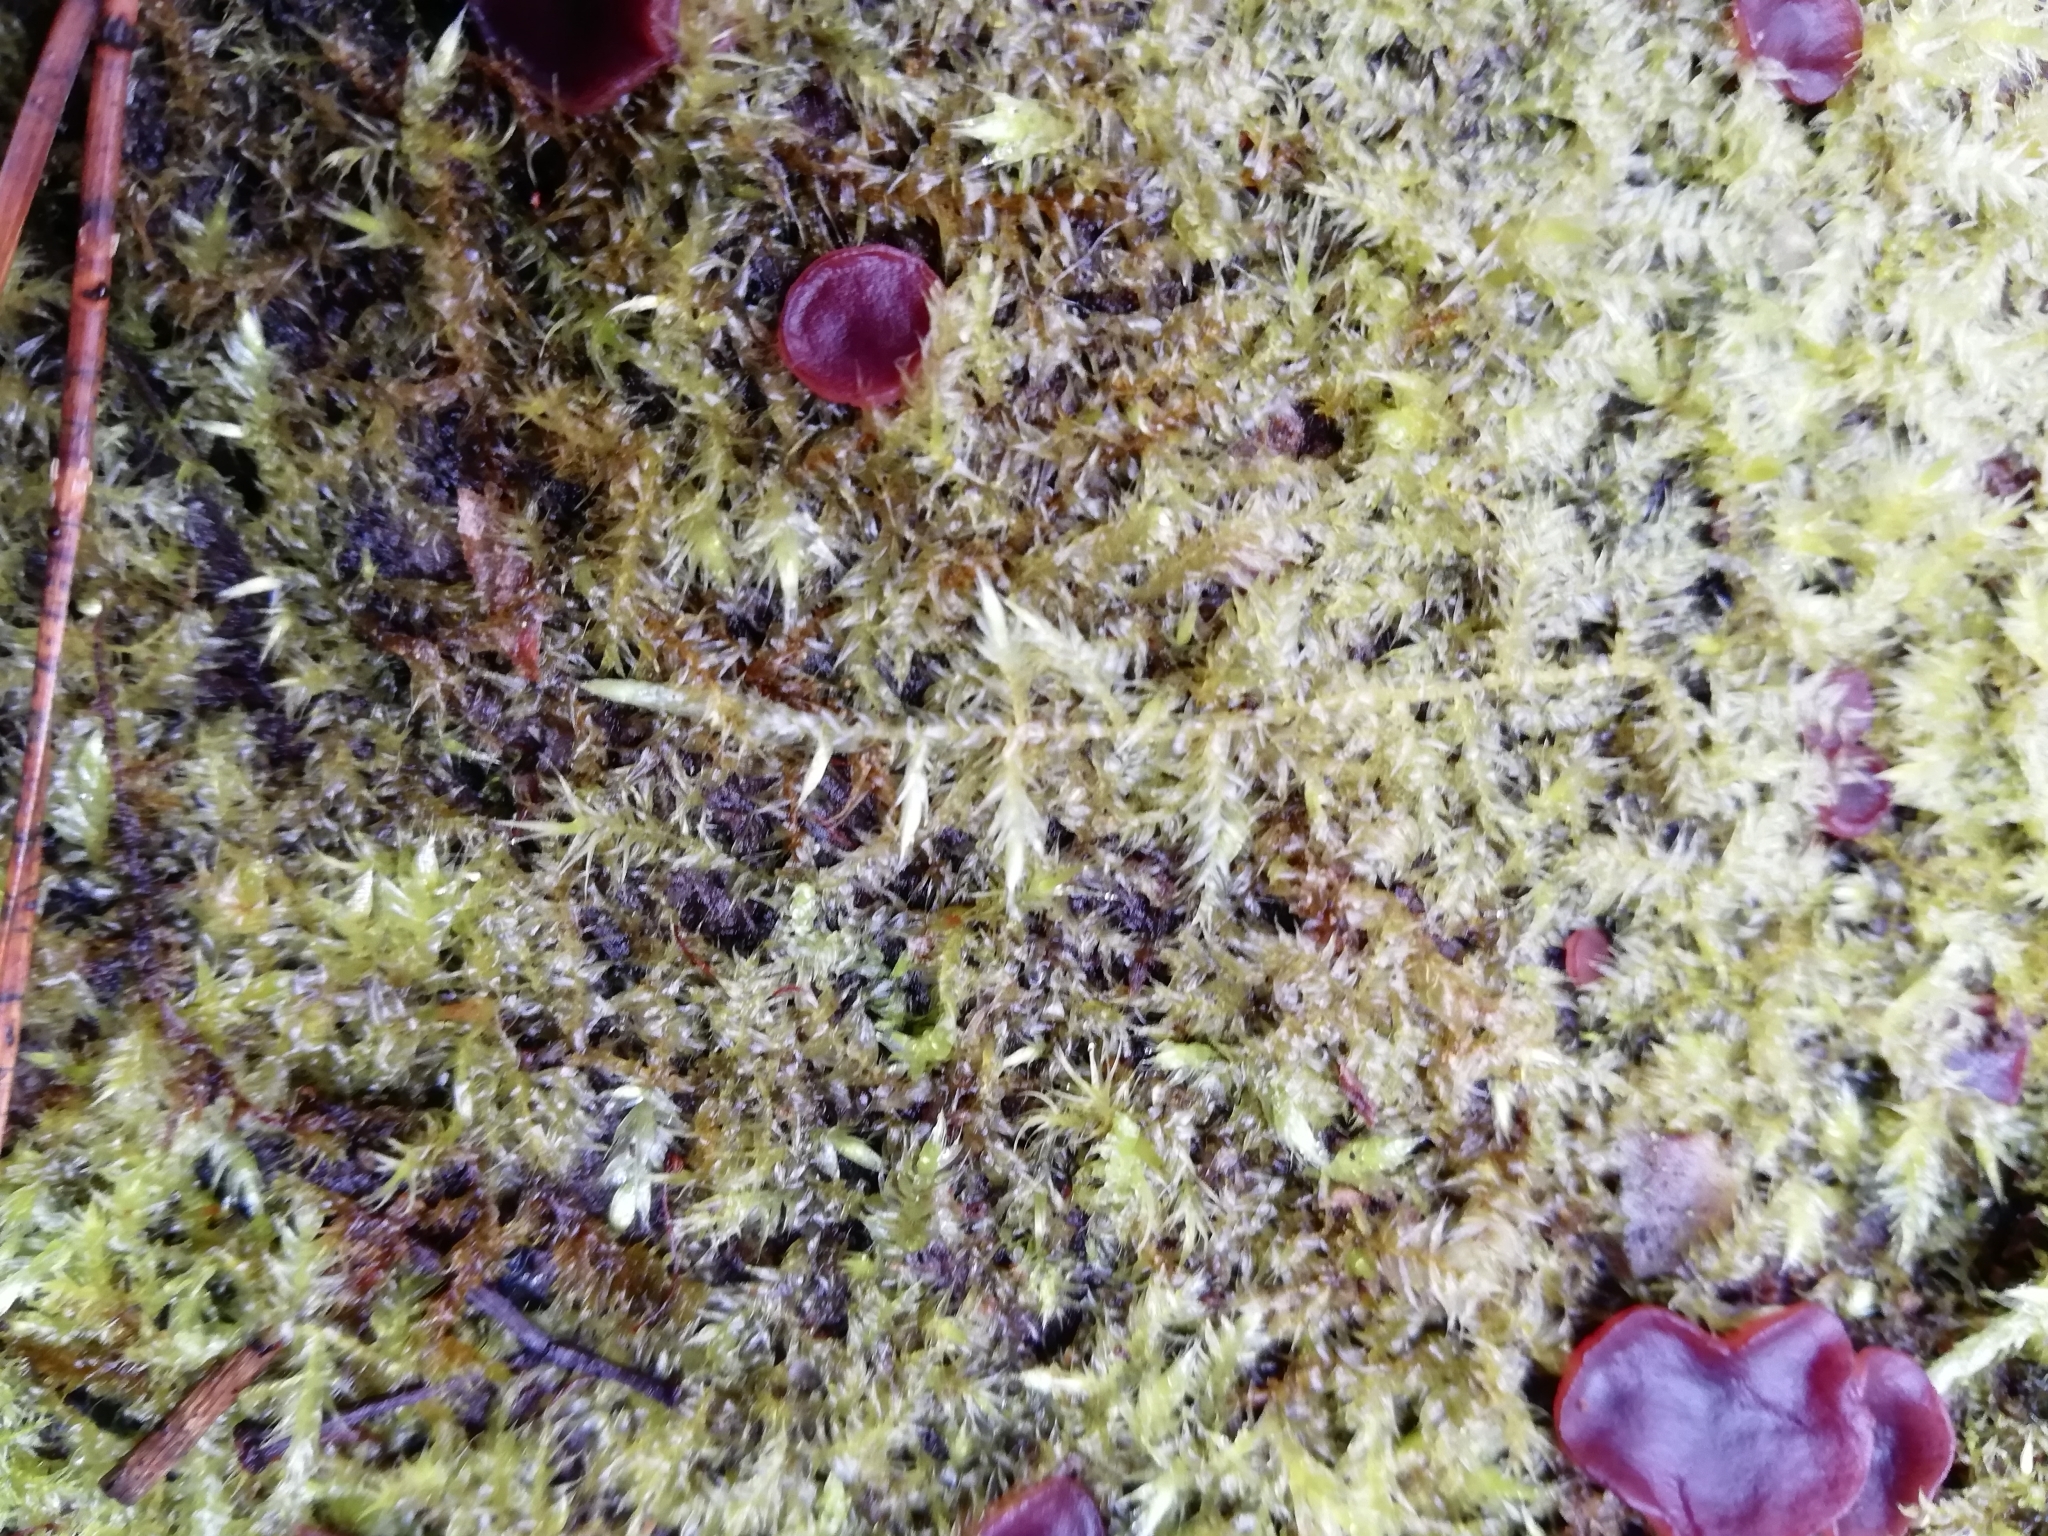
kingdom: Fungi
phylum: Ascomycota
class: Leotiomycetes
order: Helotiales
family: Gelatinodiscaceae
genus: Ascocoryne
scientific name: Ascocoryne cylichnium
